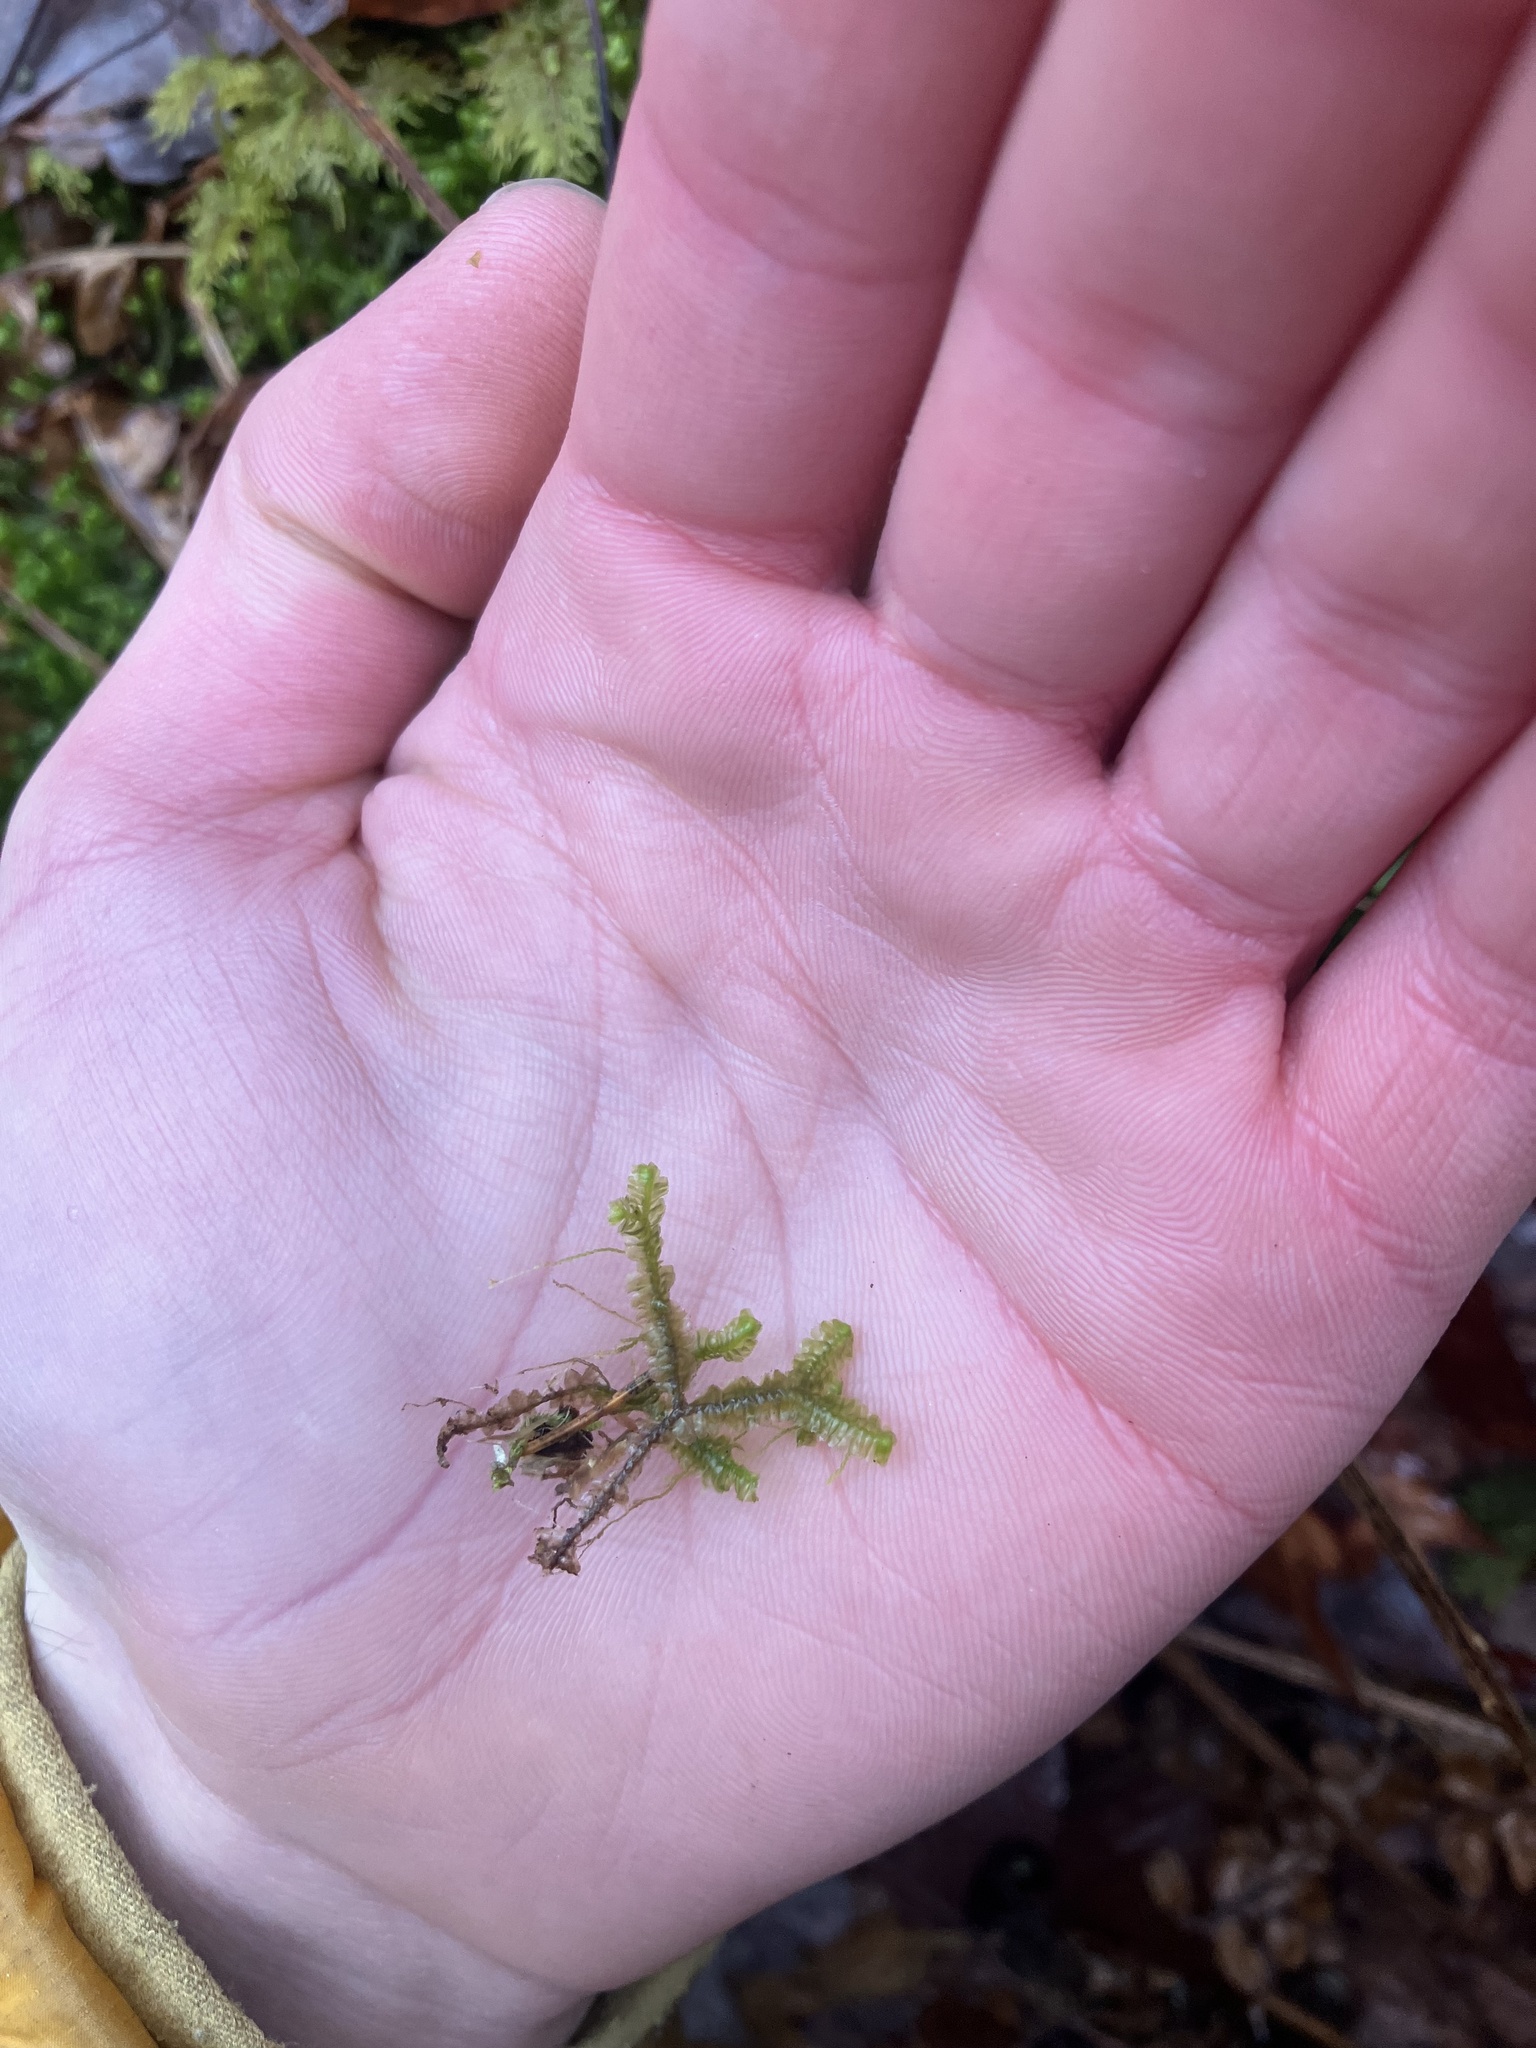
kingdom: Plantae
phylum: Marchantiophyta
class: Jungermanniopsida
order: Jungermanniales
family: Lepidoziaceae
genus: Bazzania
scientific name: Bazzania trilobata
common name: Three-lobed whipwort
